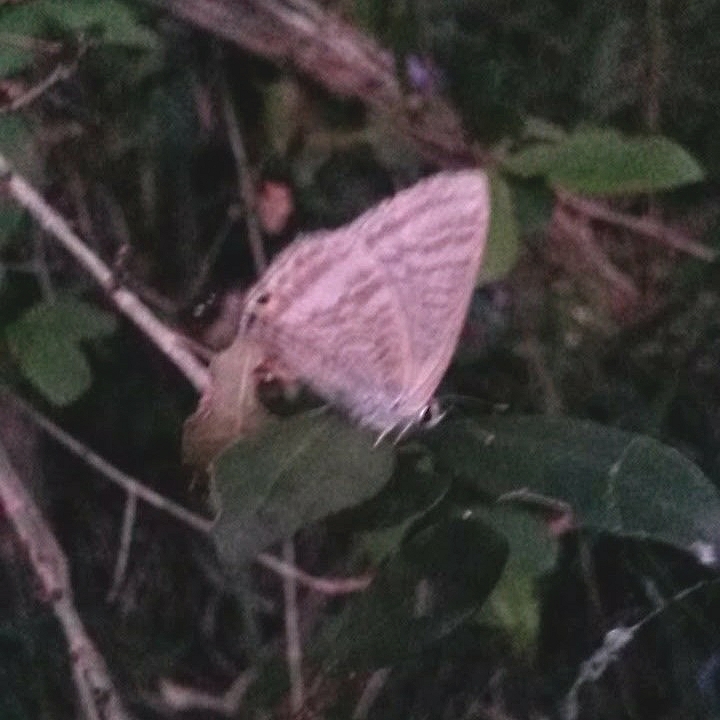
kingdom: Animalia
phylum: Arthropoda
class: Insecta
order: Lepidoptera
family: Lycaenidae
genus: Lampides
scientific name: Lampides boeticus
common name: Long-tailed blue
